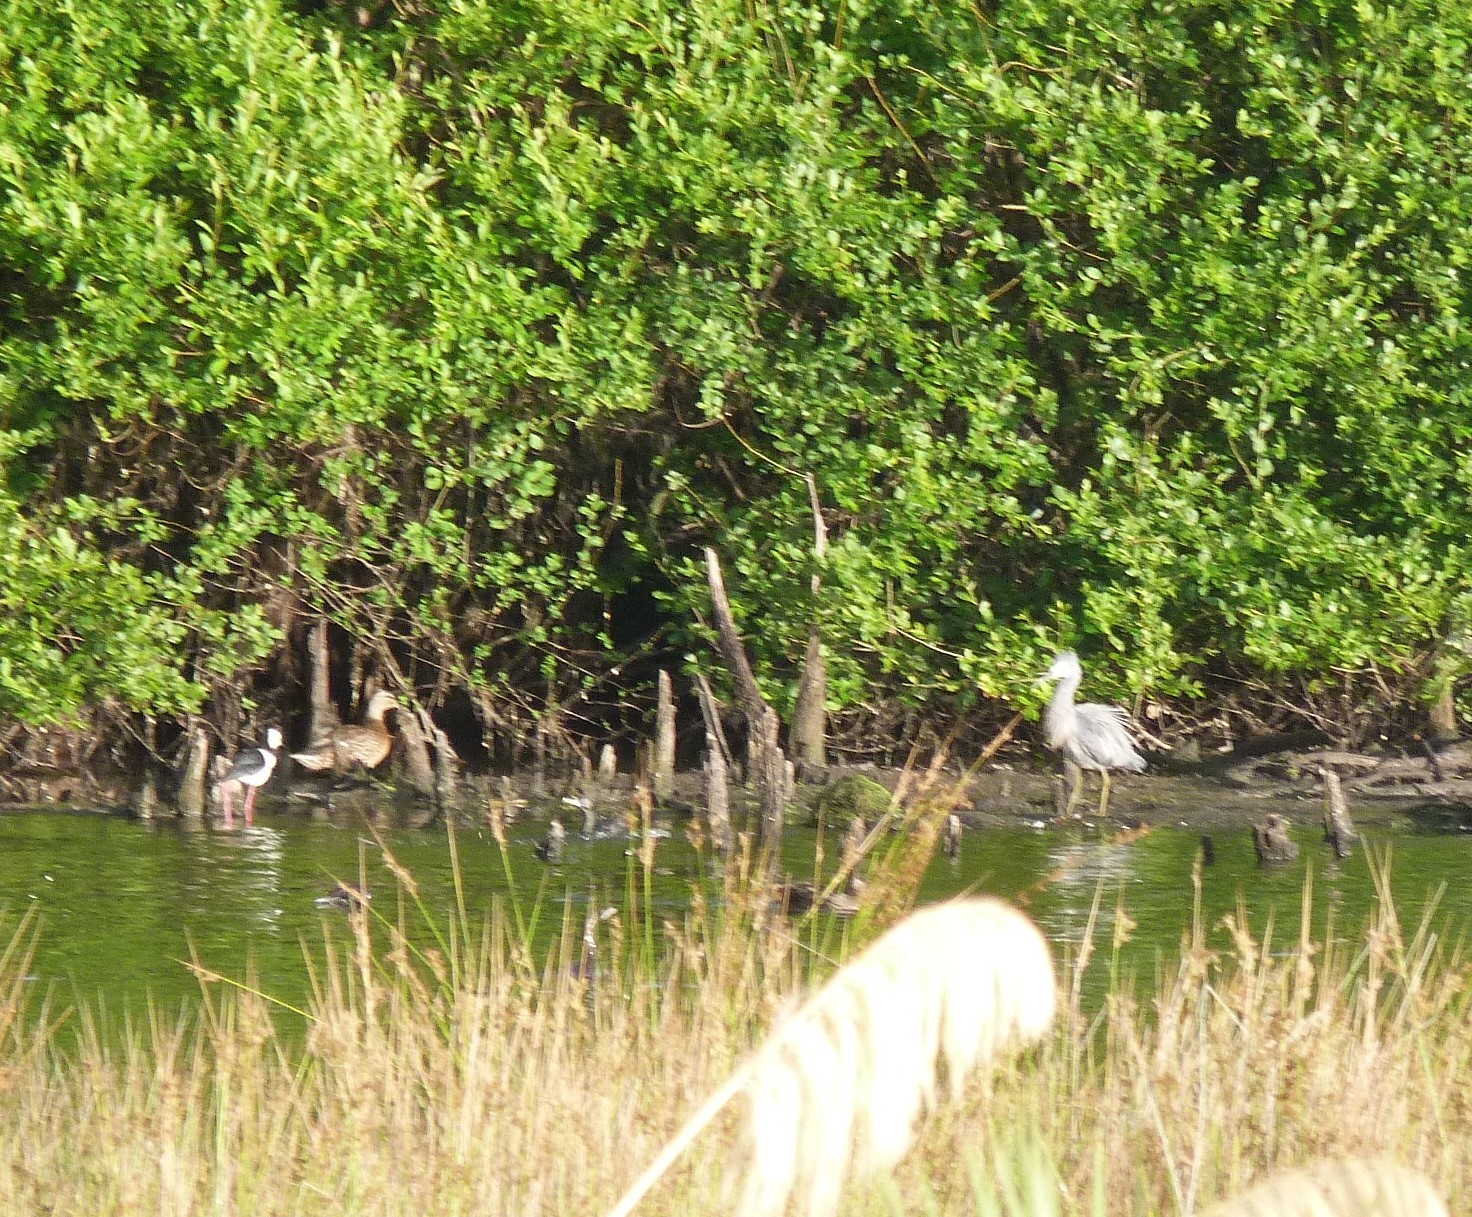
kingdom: Animalia
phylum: Chordata
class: Aves
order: Pelecaniformes
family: Ardeidae
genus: Egretta
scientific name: Egretta novaehollandiae
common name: White-faced heron
